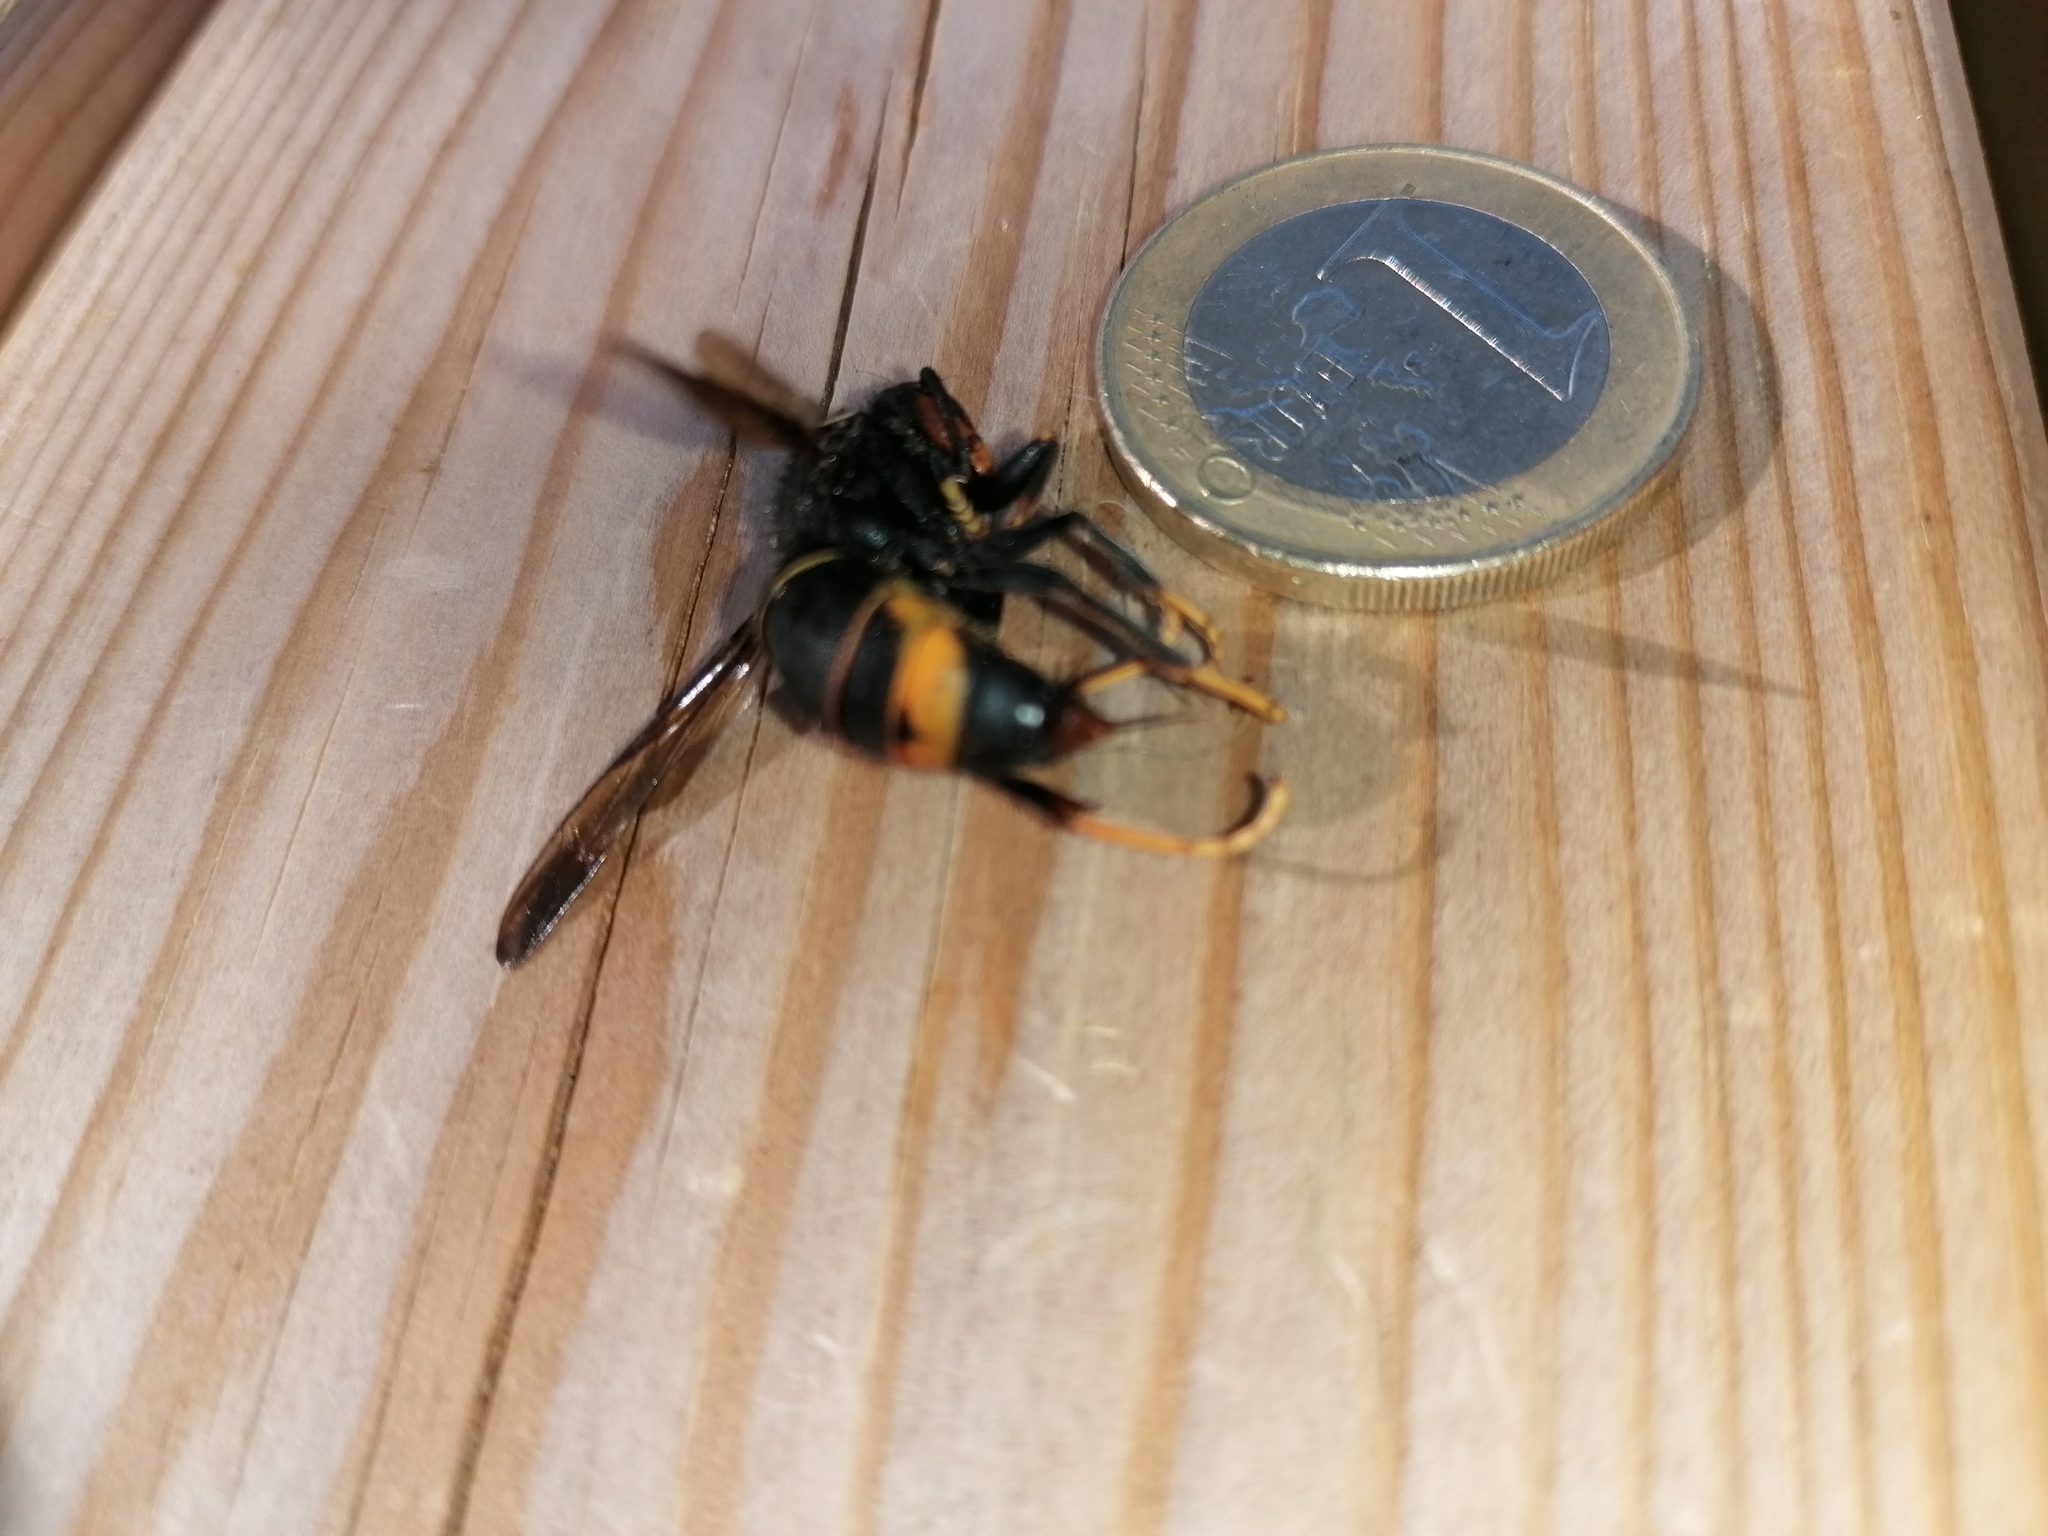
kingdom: Animalia
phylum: Arthropoda
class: Insecta
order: Hymenoptera
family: Vespidae
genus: Vespa
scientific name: Vespa velutina
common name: Asian hornet
